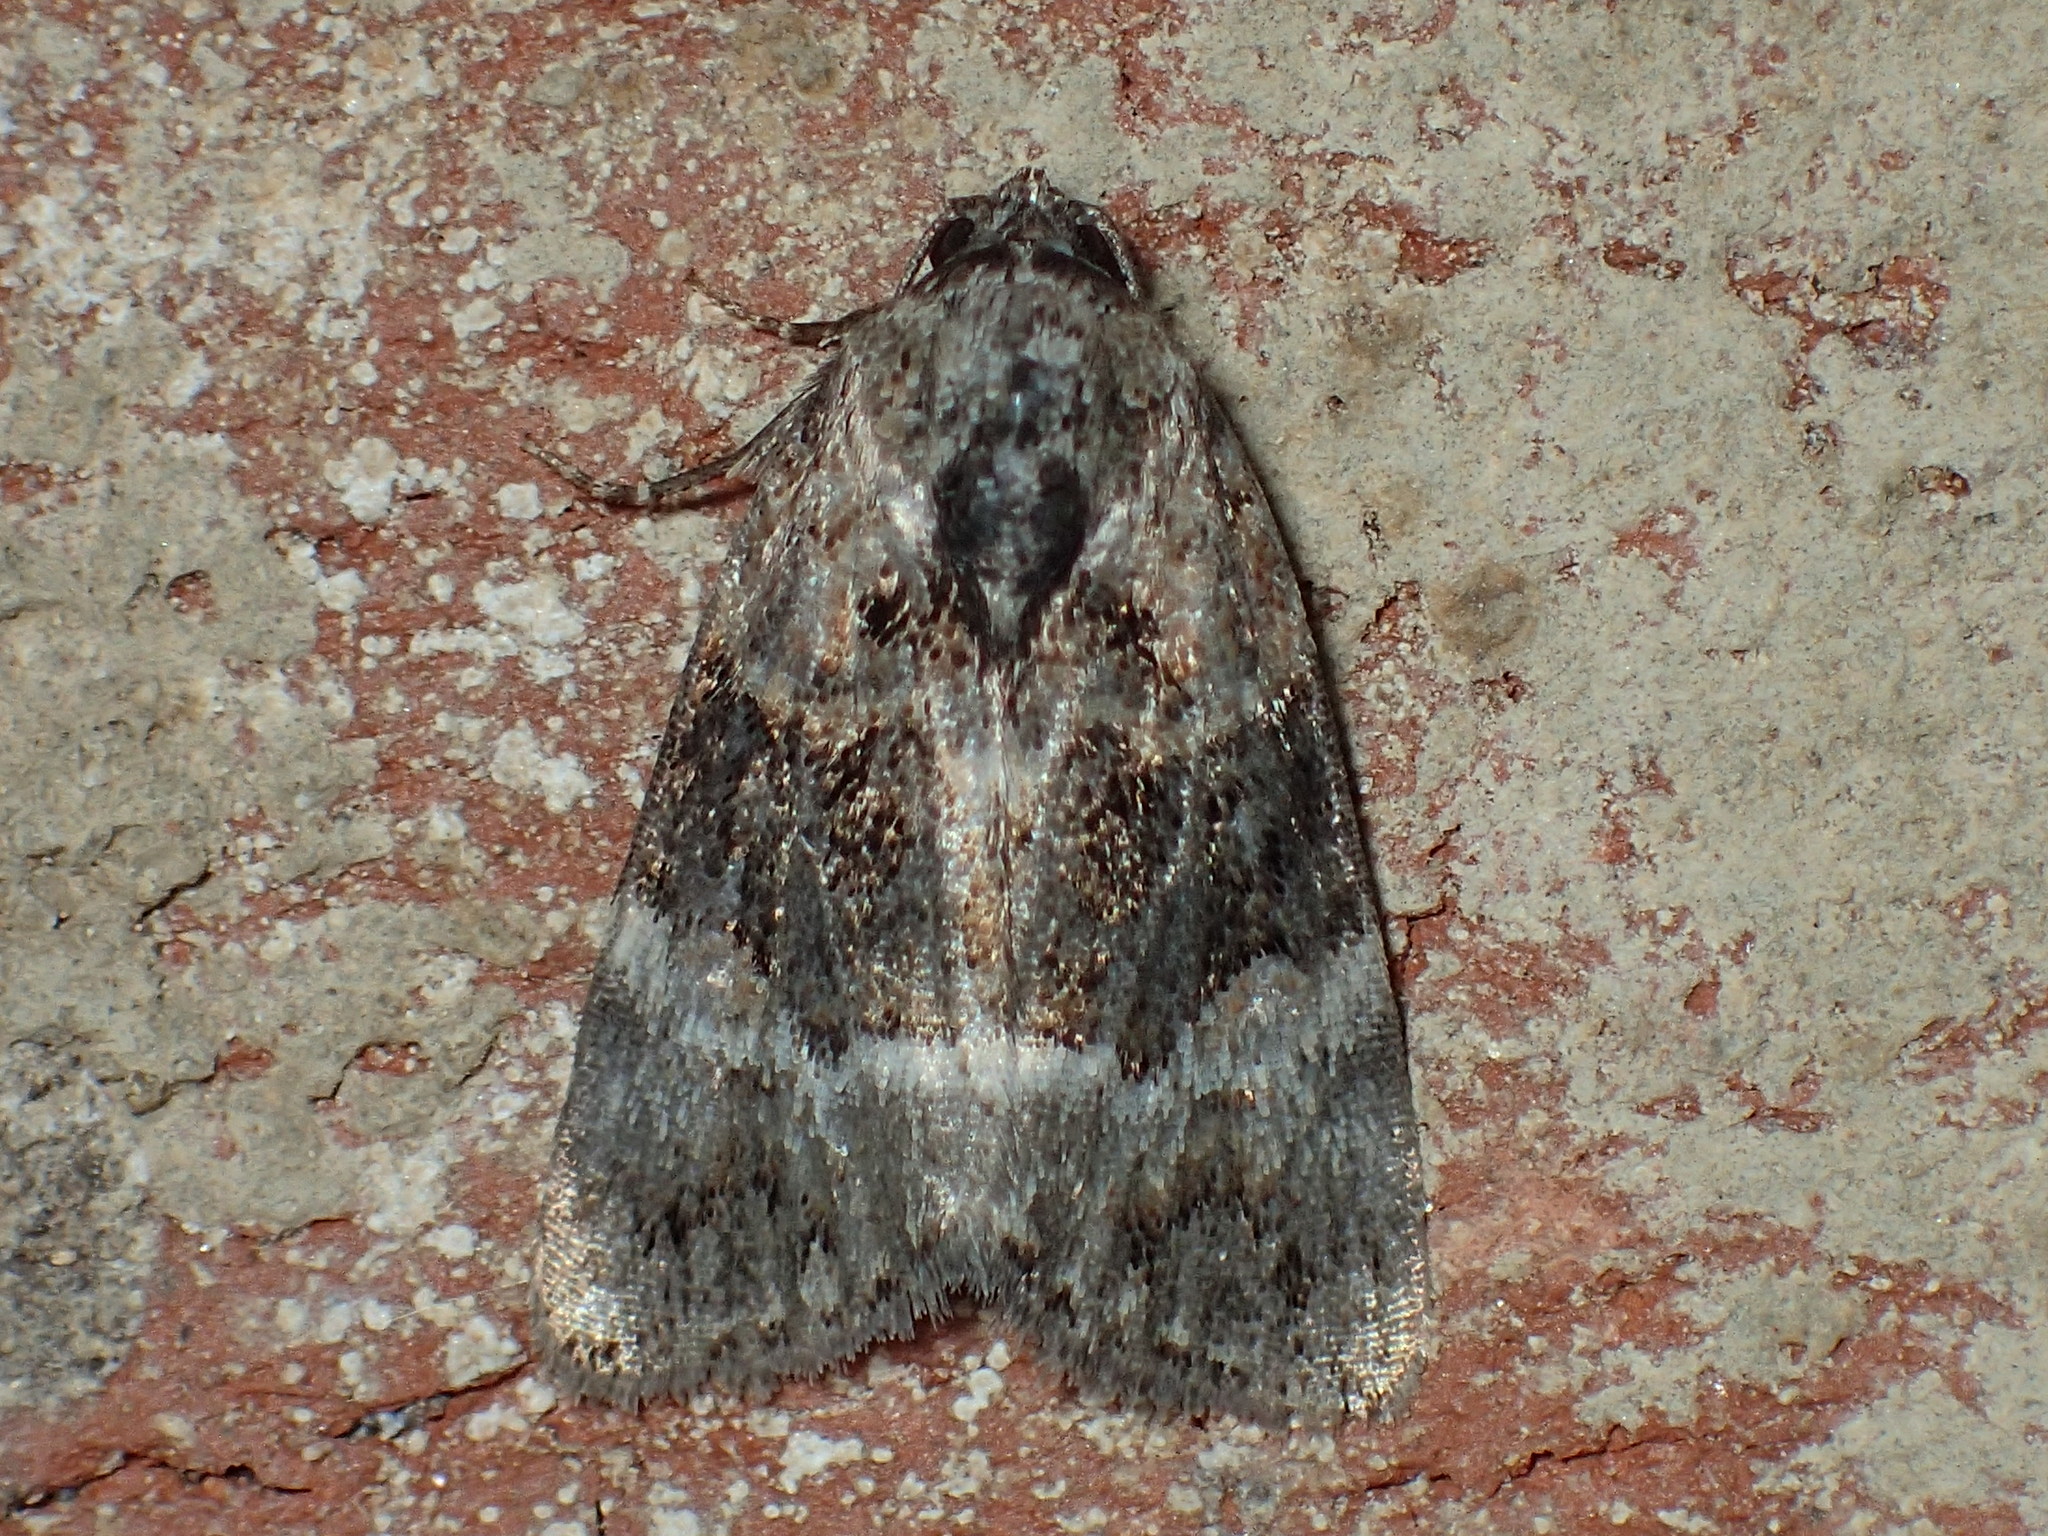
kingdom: Animalia
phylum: Arthropoda
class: Insecta
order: Lepidoptera
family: Noctuidae
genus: Elaphria
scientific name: Elaphria georgei
